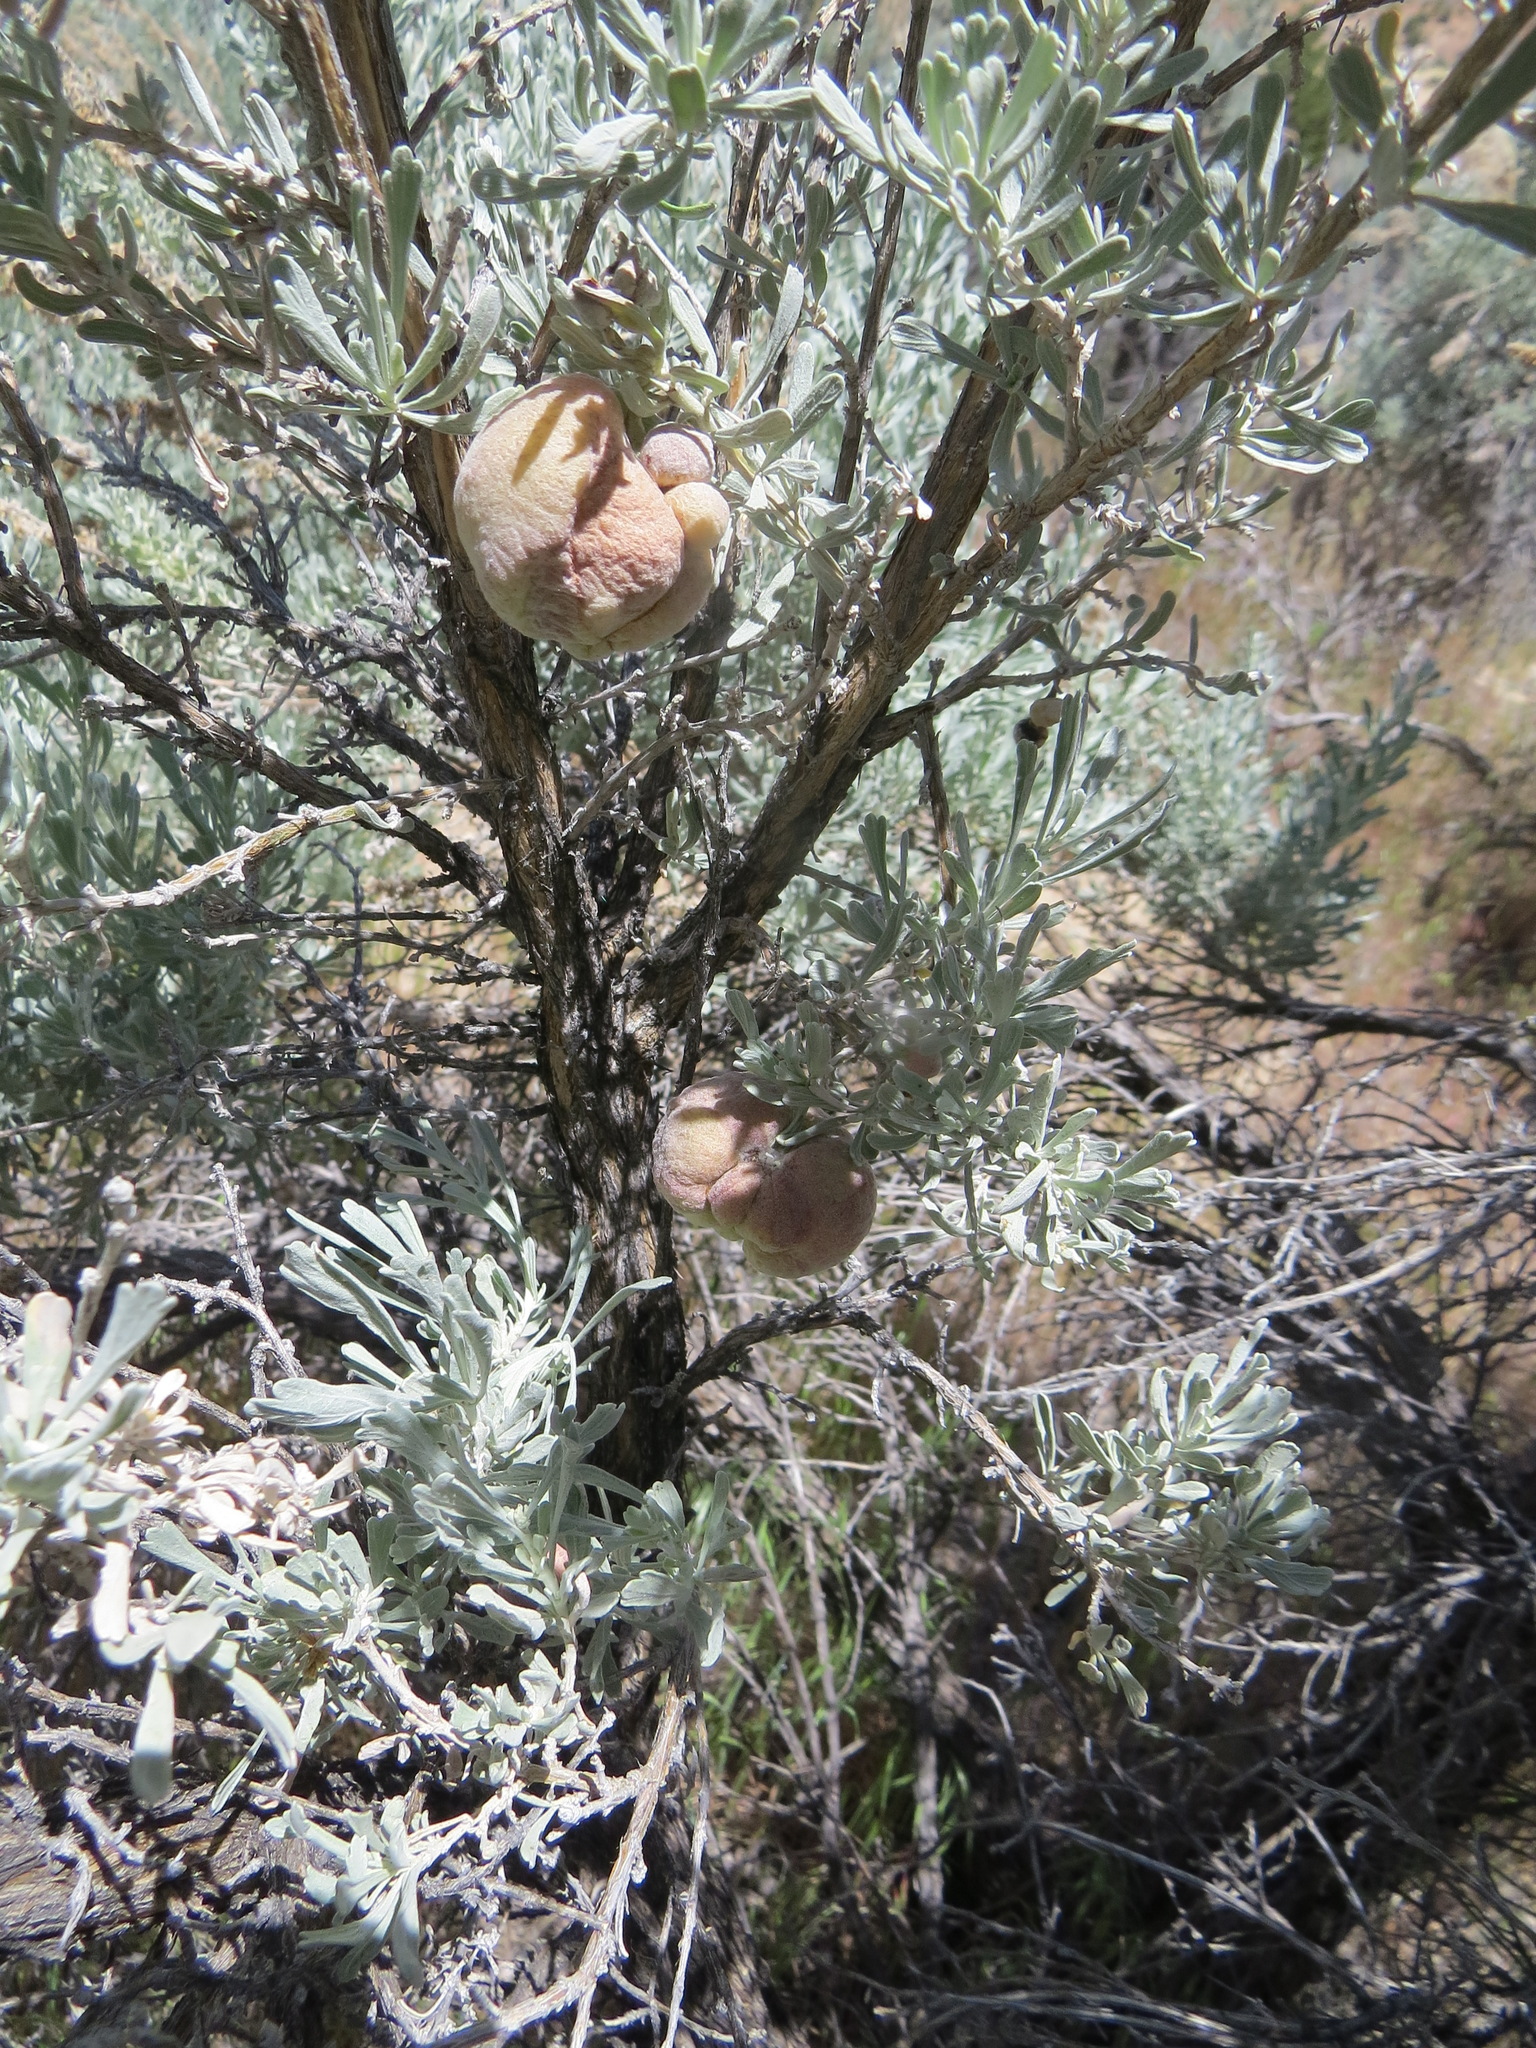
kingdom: Animalia
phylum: Arthropoda
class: Insecta
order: Diptera
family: Cecidomyiidae
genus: Rhopalomyia
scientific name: Rhopalomyia pomum
